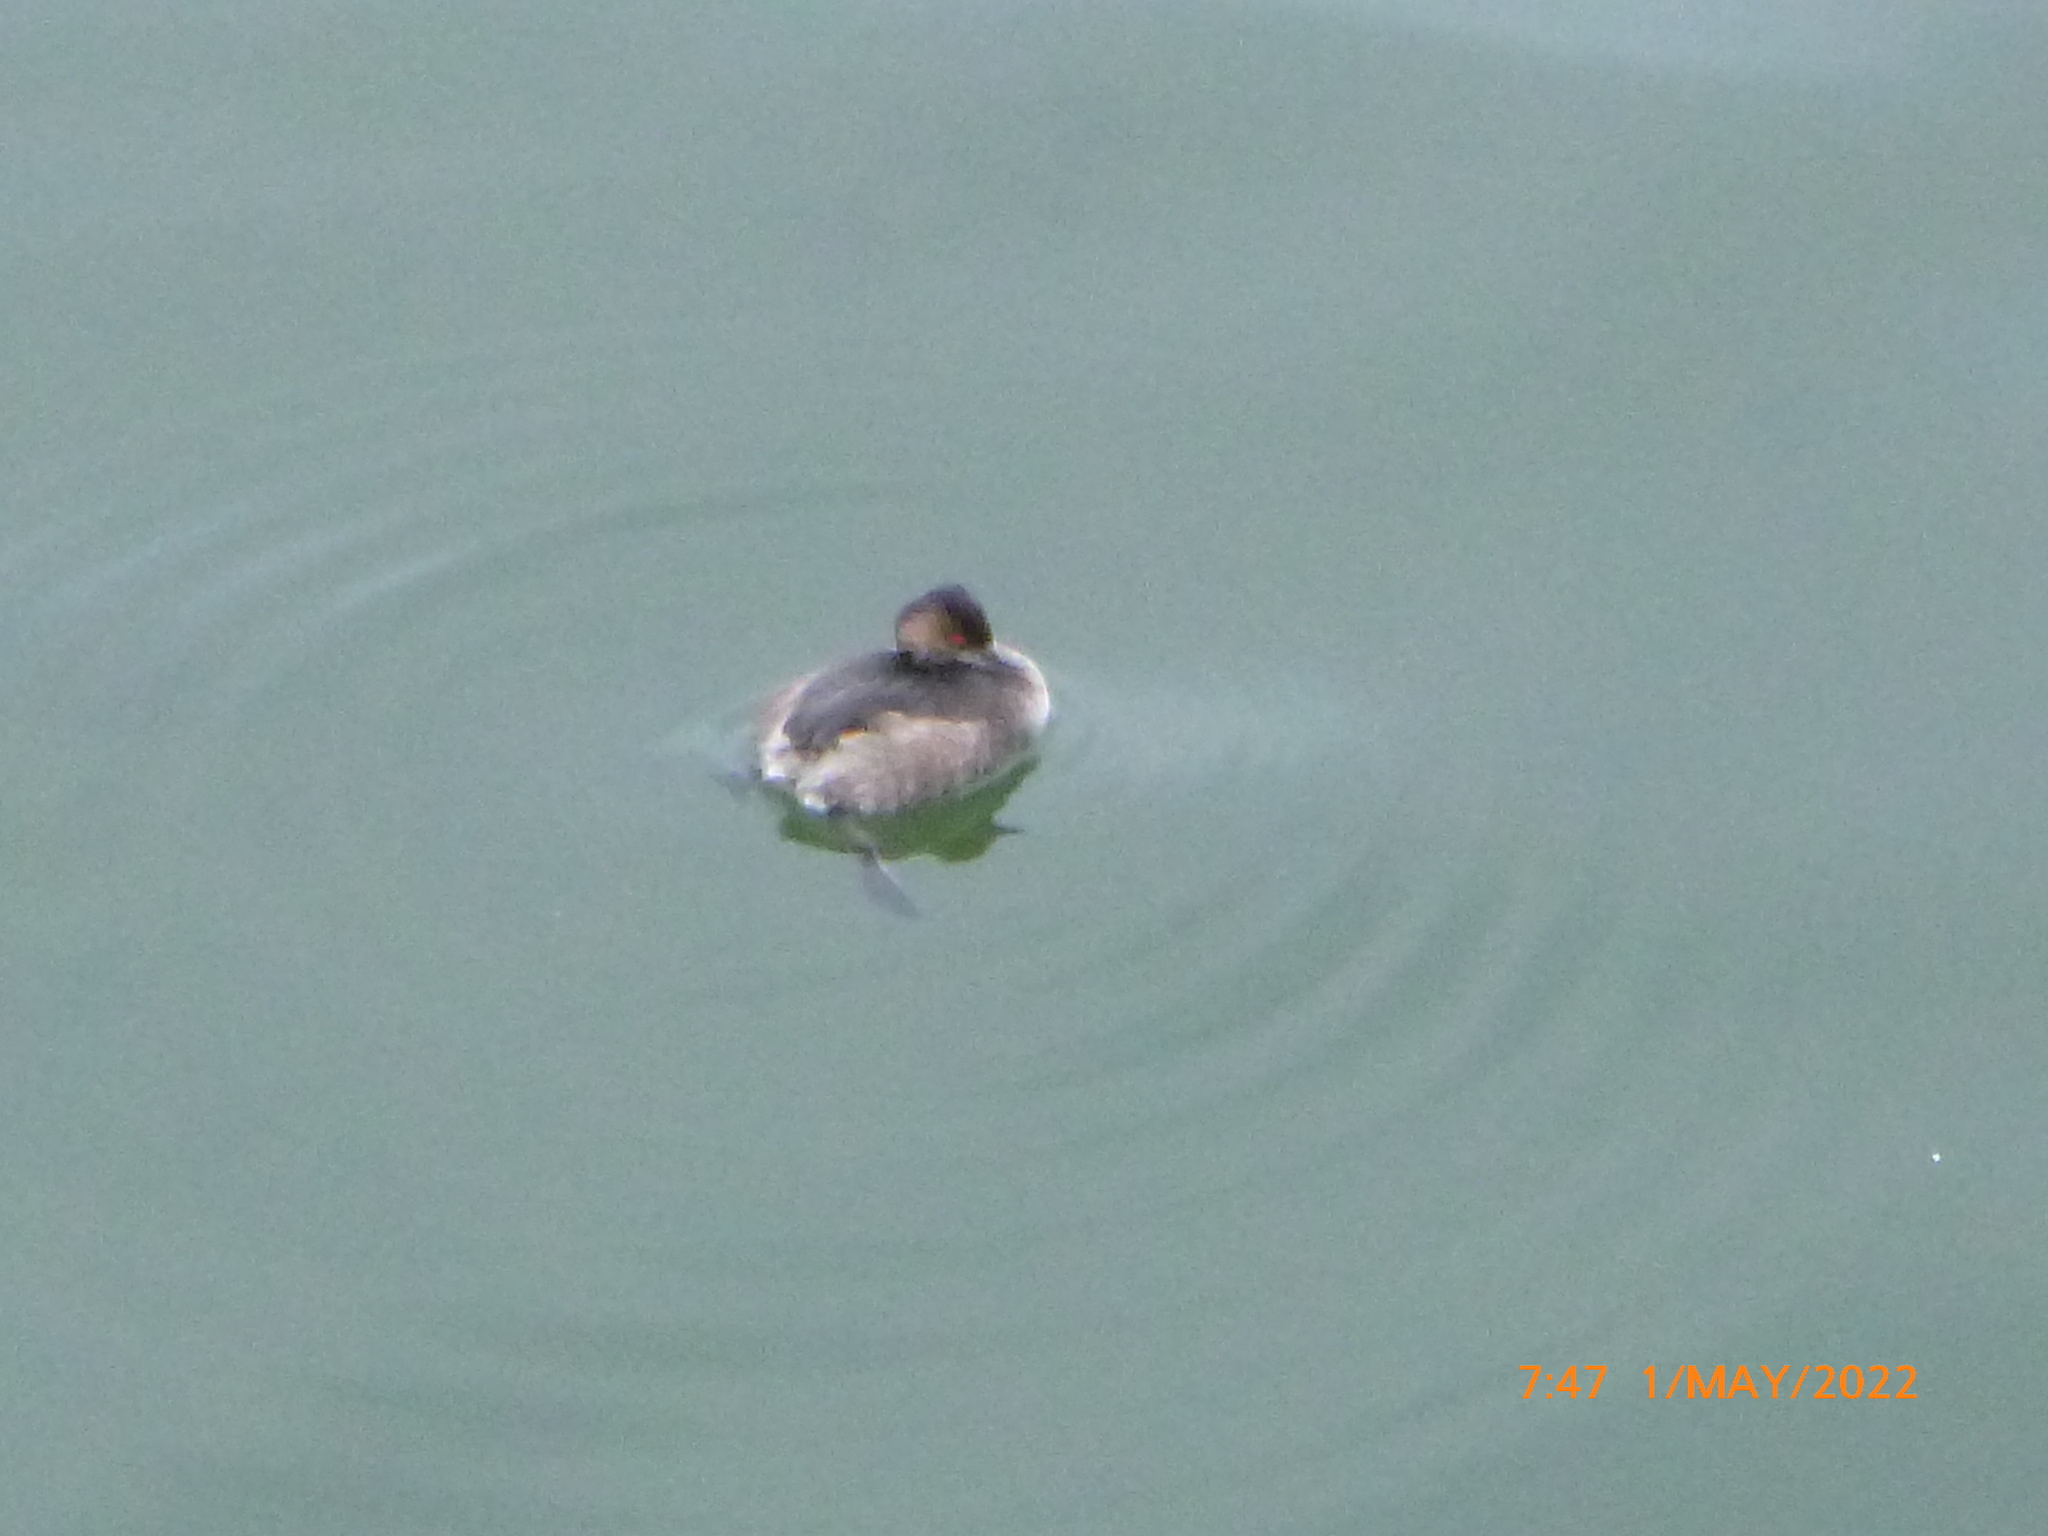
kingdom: Animalia
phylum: Chordata
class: Aves
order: Podicipediformes
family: Podicipedidae
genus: Podiceps
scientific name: Podiceps nigricollis
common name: Black-necked grebe
